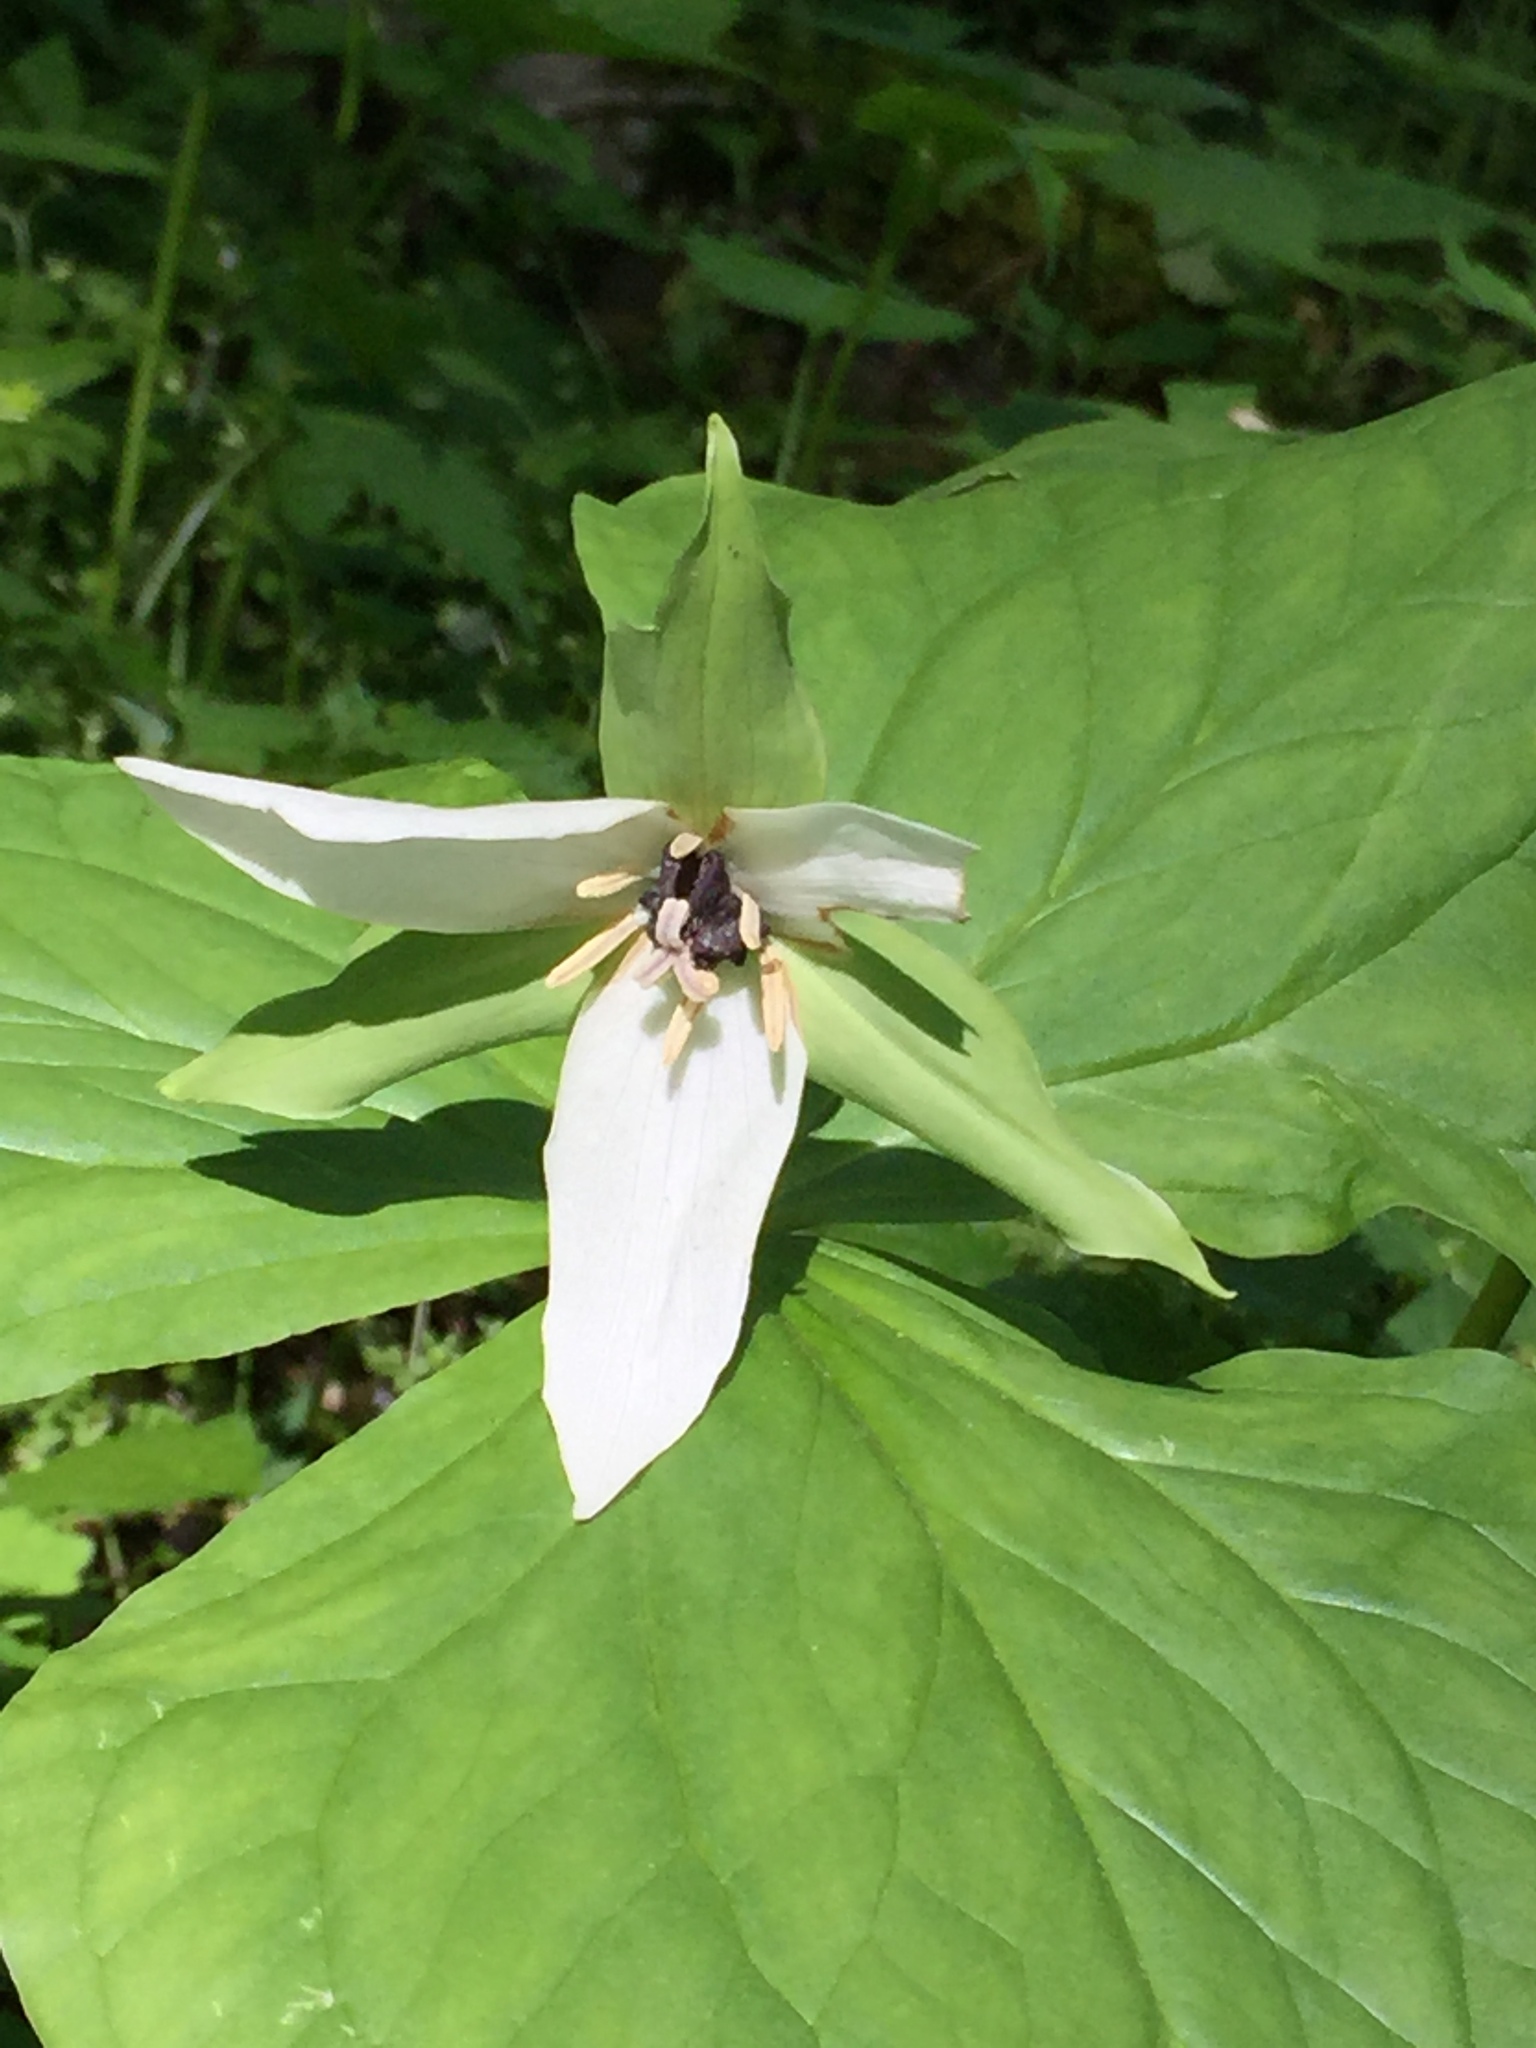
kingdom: Plantae
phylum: Tracheophyta
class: Liliopsida
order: Liliales
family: Melanthiaceae
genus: Trillium
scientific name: Trillium erectum
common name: Purple trillium
